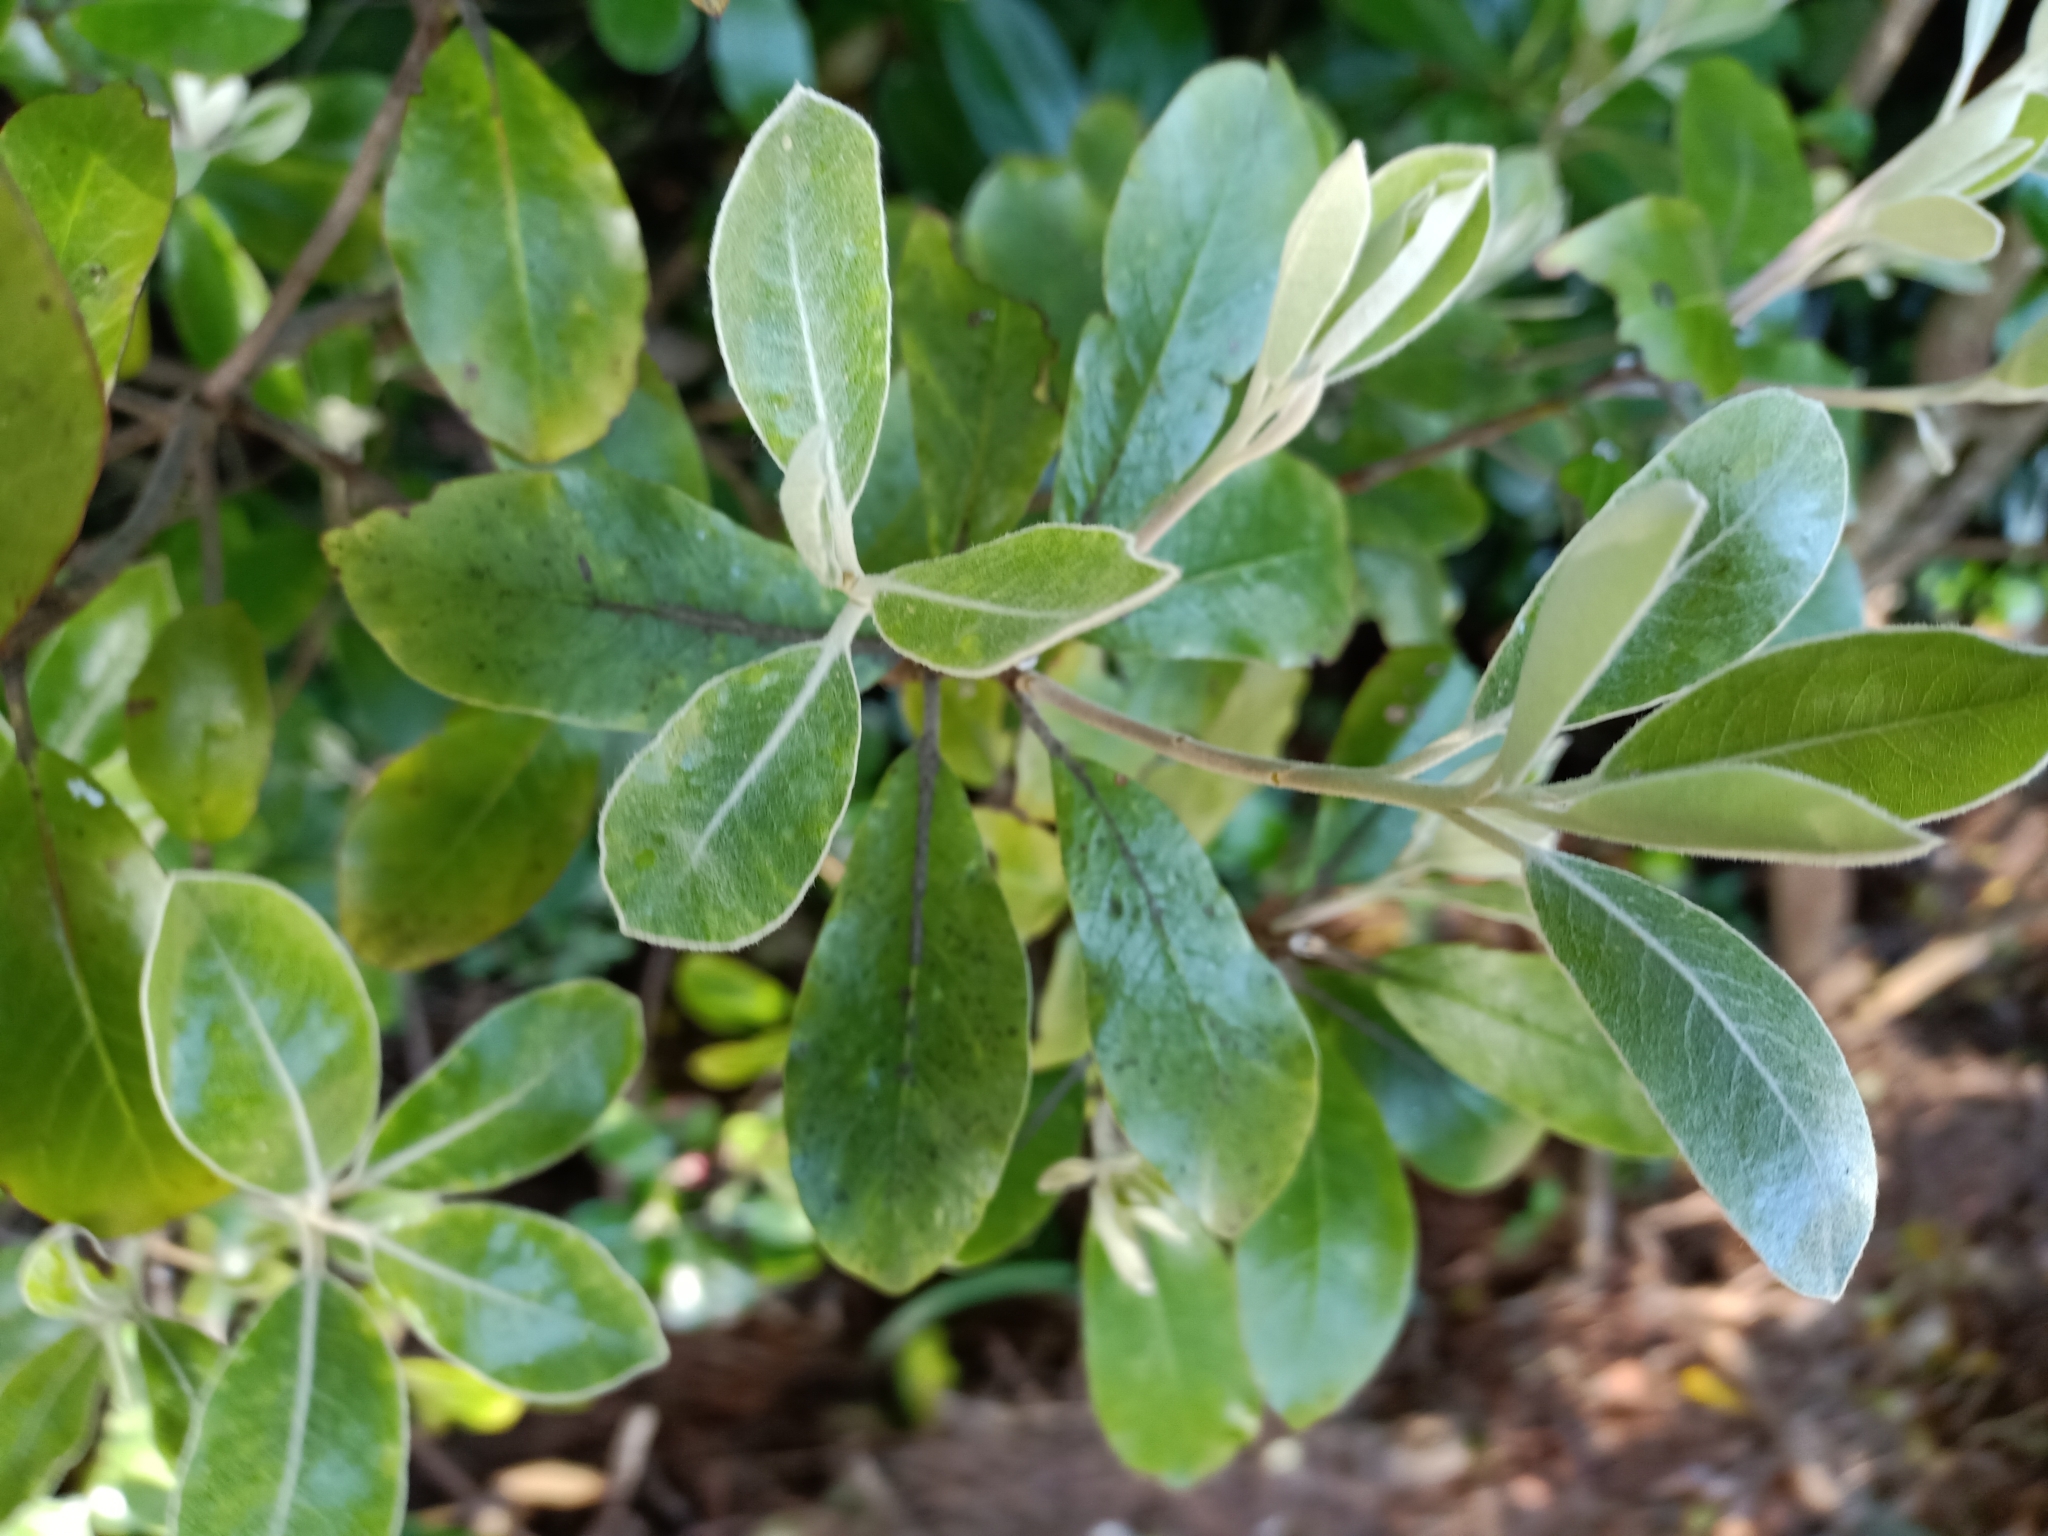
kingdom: Plantae
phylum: Tracheophyta
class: Magnoliopsida
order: Apiales
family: Pittosporaceae
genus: Pittosporum
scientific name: Pittosporum ralphii
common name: Ralph's desertwillow
